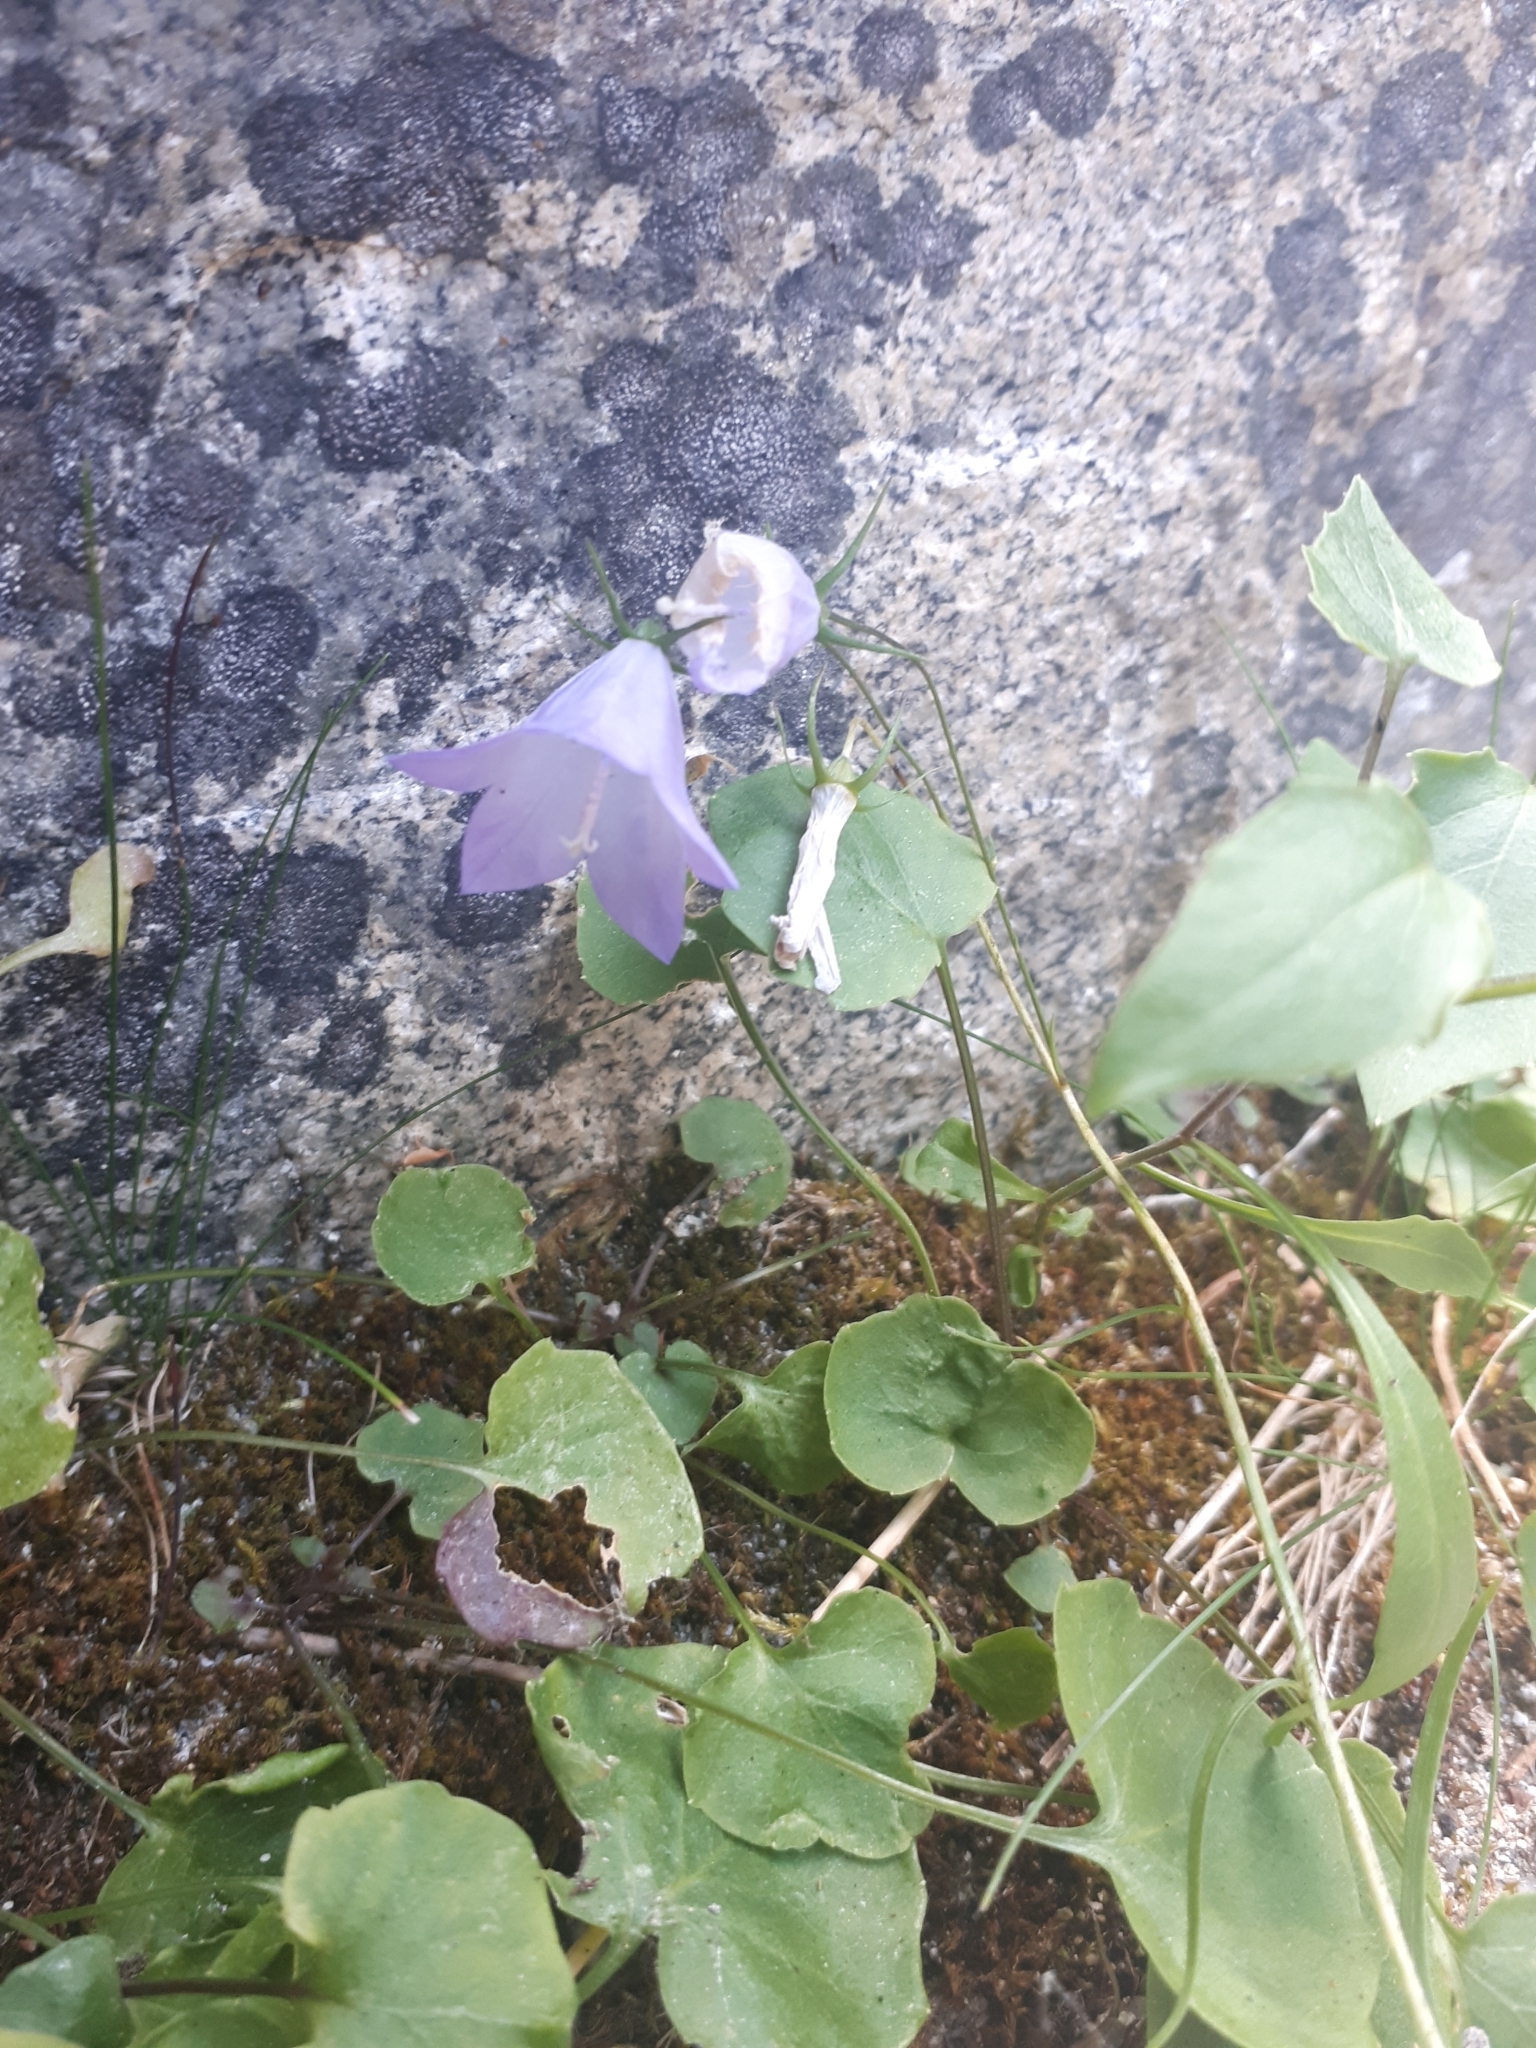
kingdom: Plantae
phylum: Tracheophyta
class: Magnoliopsida
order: Asterales
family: Campanulaceae
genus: Campanula
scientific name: Campanula alaskana
